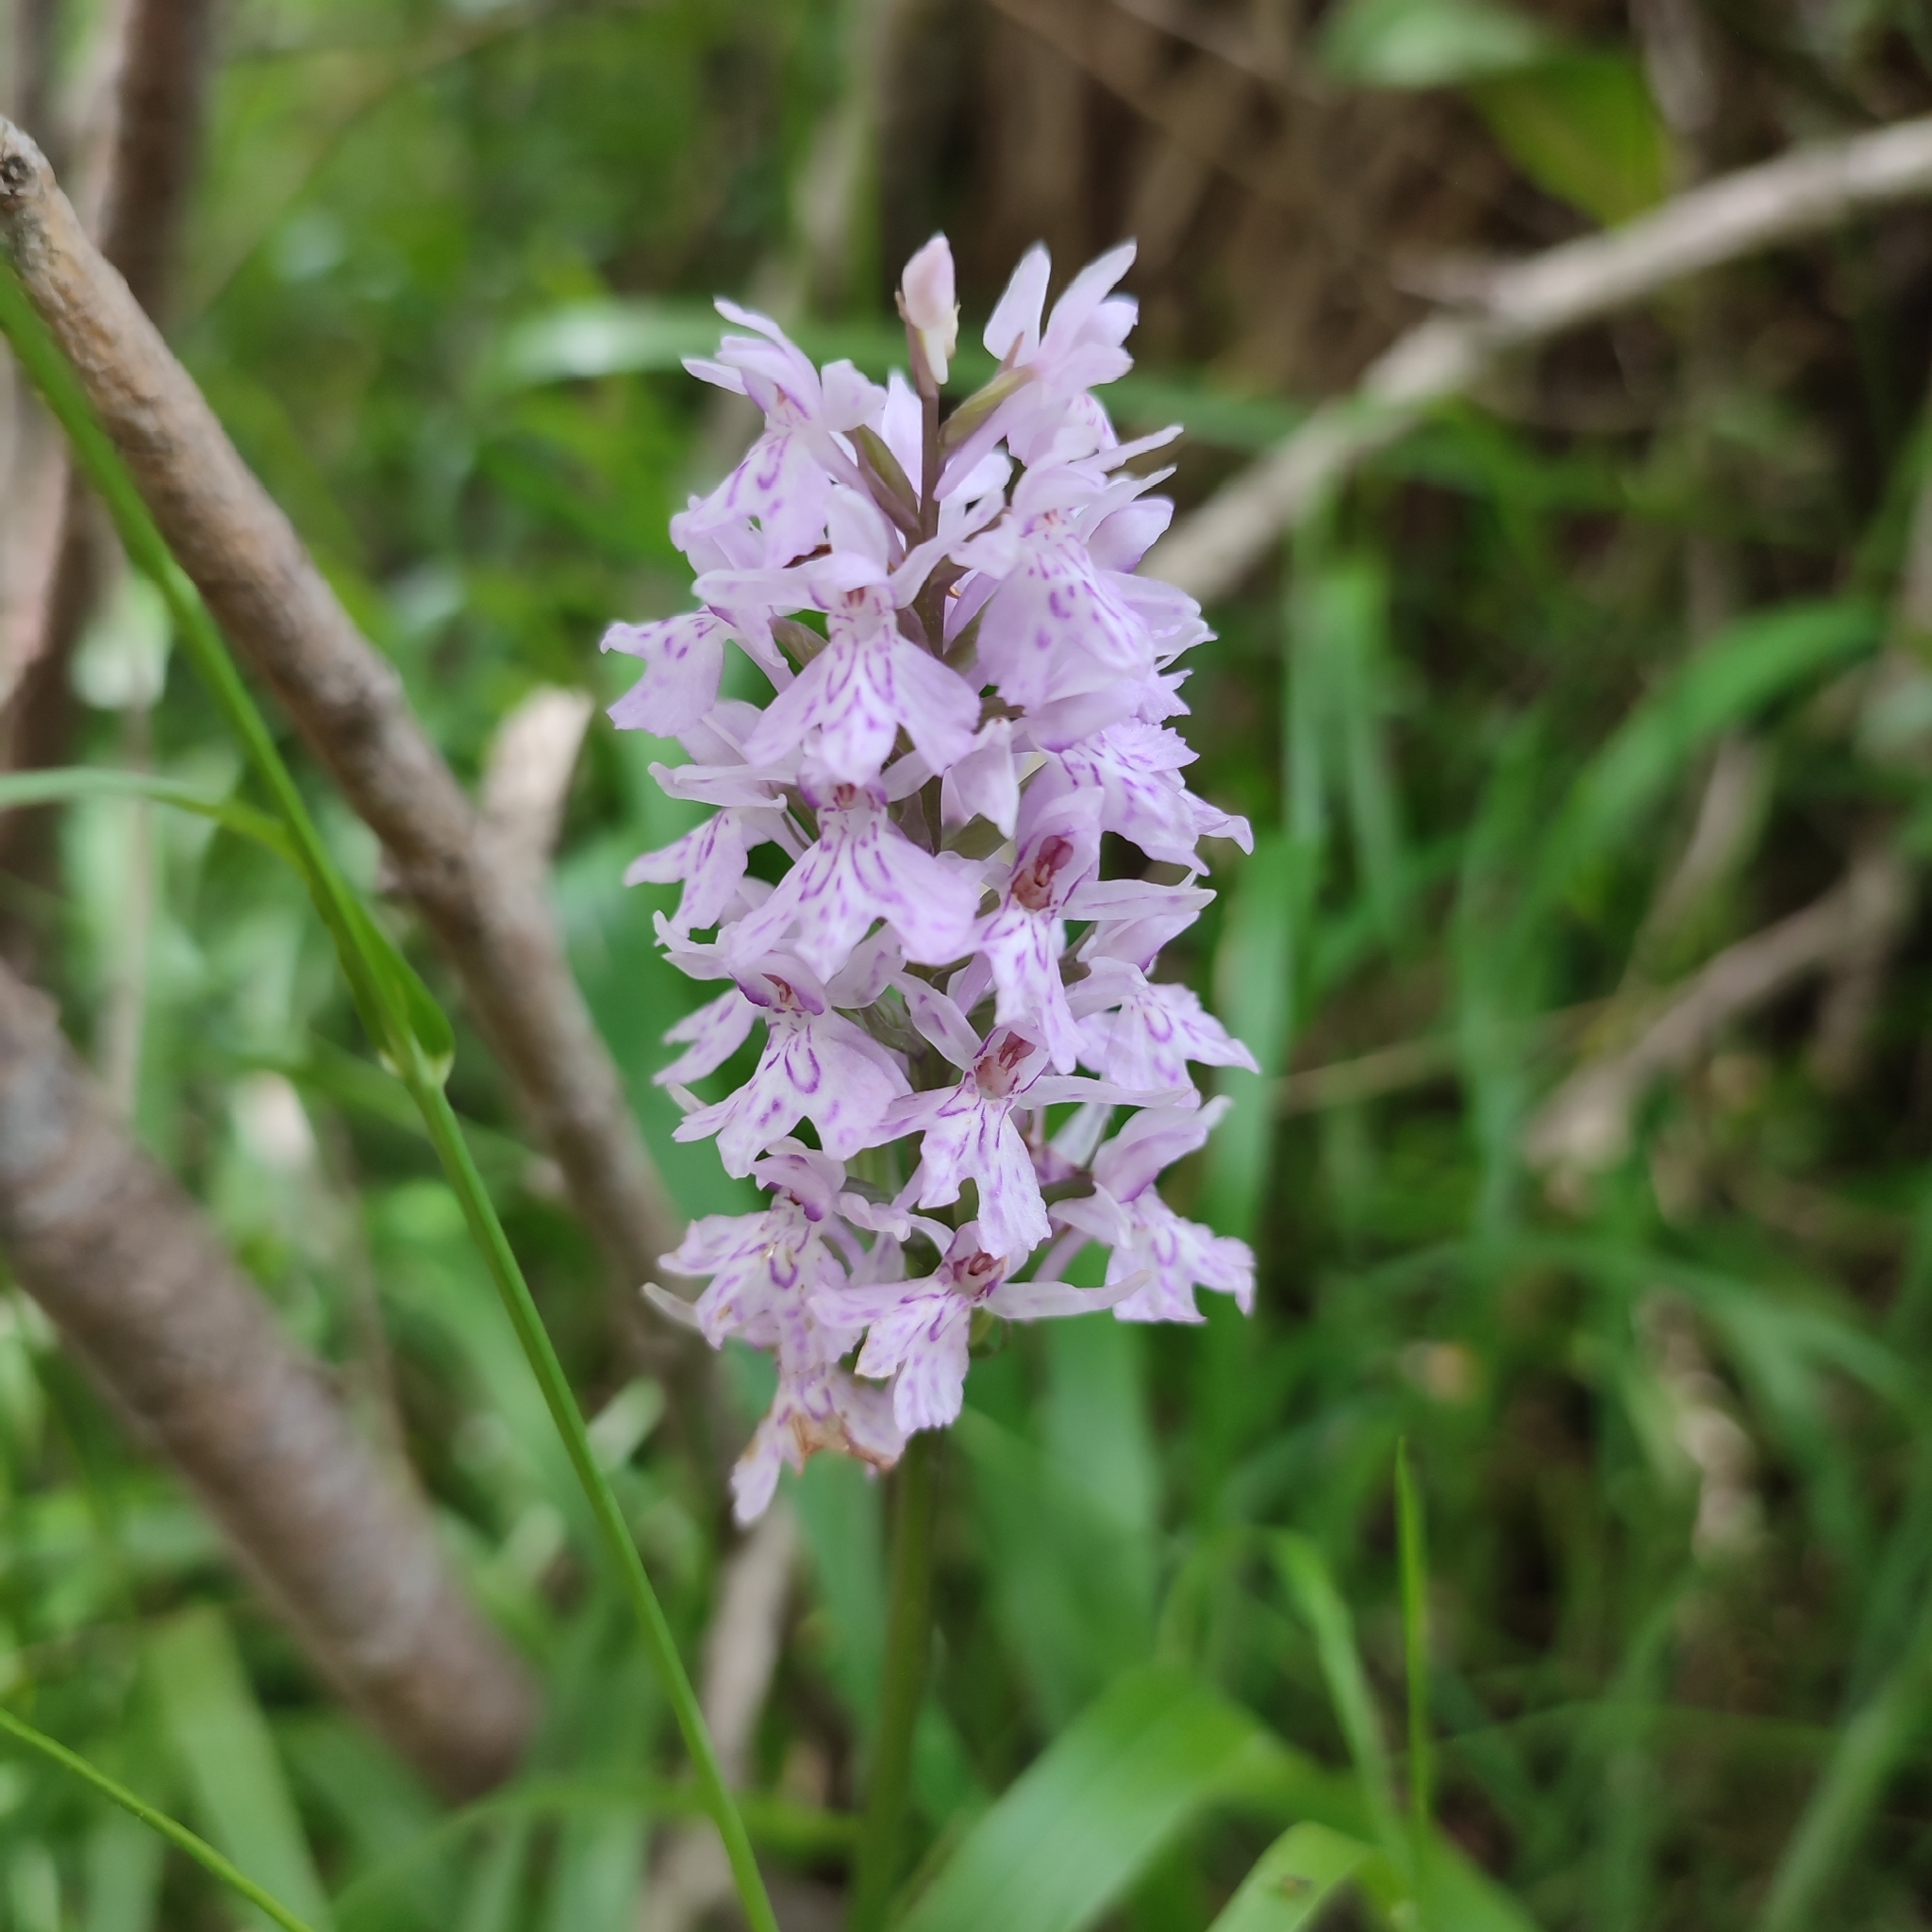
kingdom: Plantae
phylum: Tracheophyta
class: Liliopsida
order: Asparagales
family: Orchidaceae
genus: Dactylorhiza
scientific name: Dactylorhiza maculata
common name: Heath spotted-orchid
